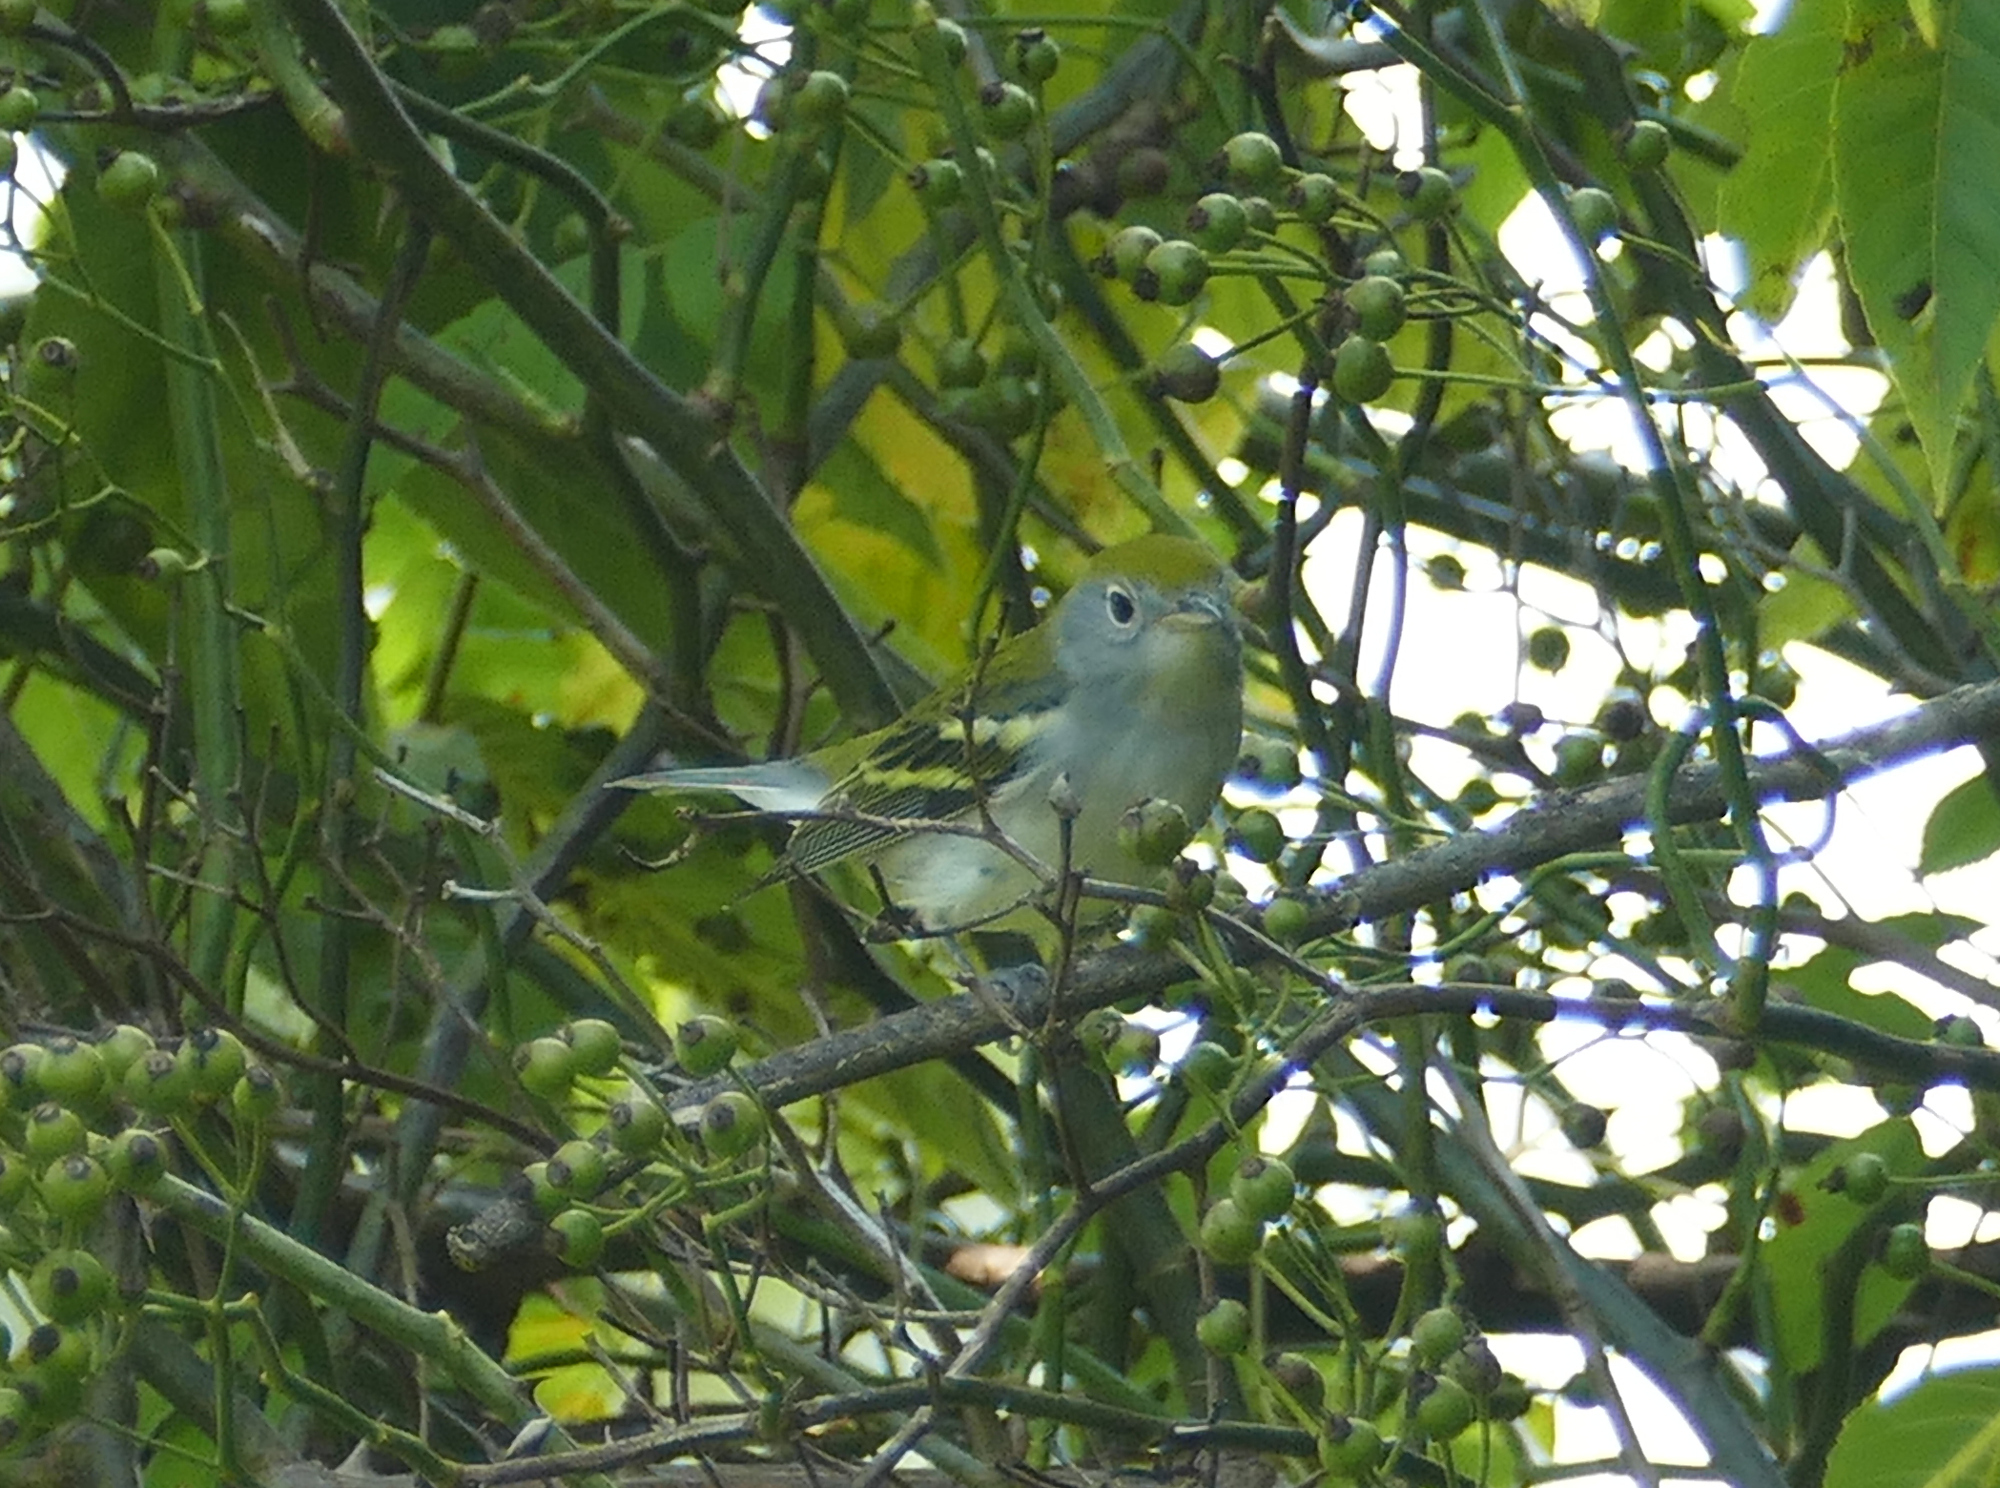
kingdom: Animalia
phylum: Chordata
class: Aves
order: Passeriformes
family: Parulidae
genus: Setophaga
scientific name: Setophaga pensylvanica
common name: Chestnut-sided warbler
